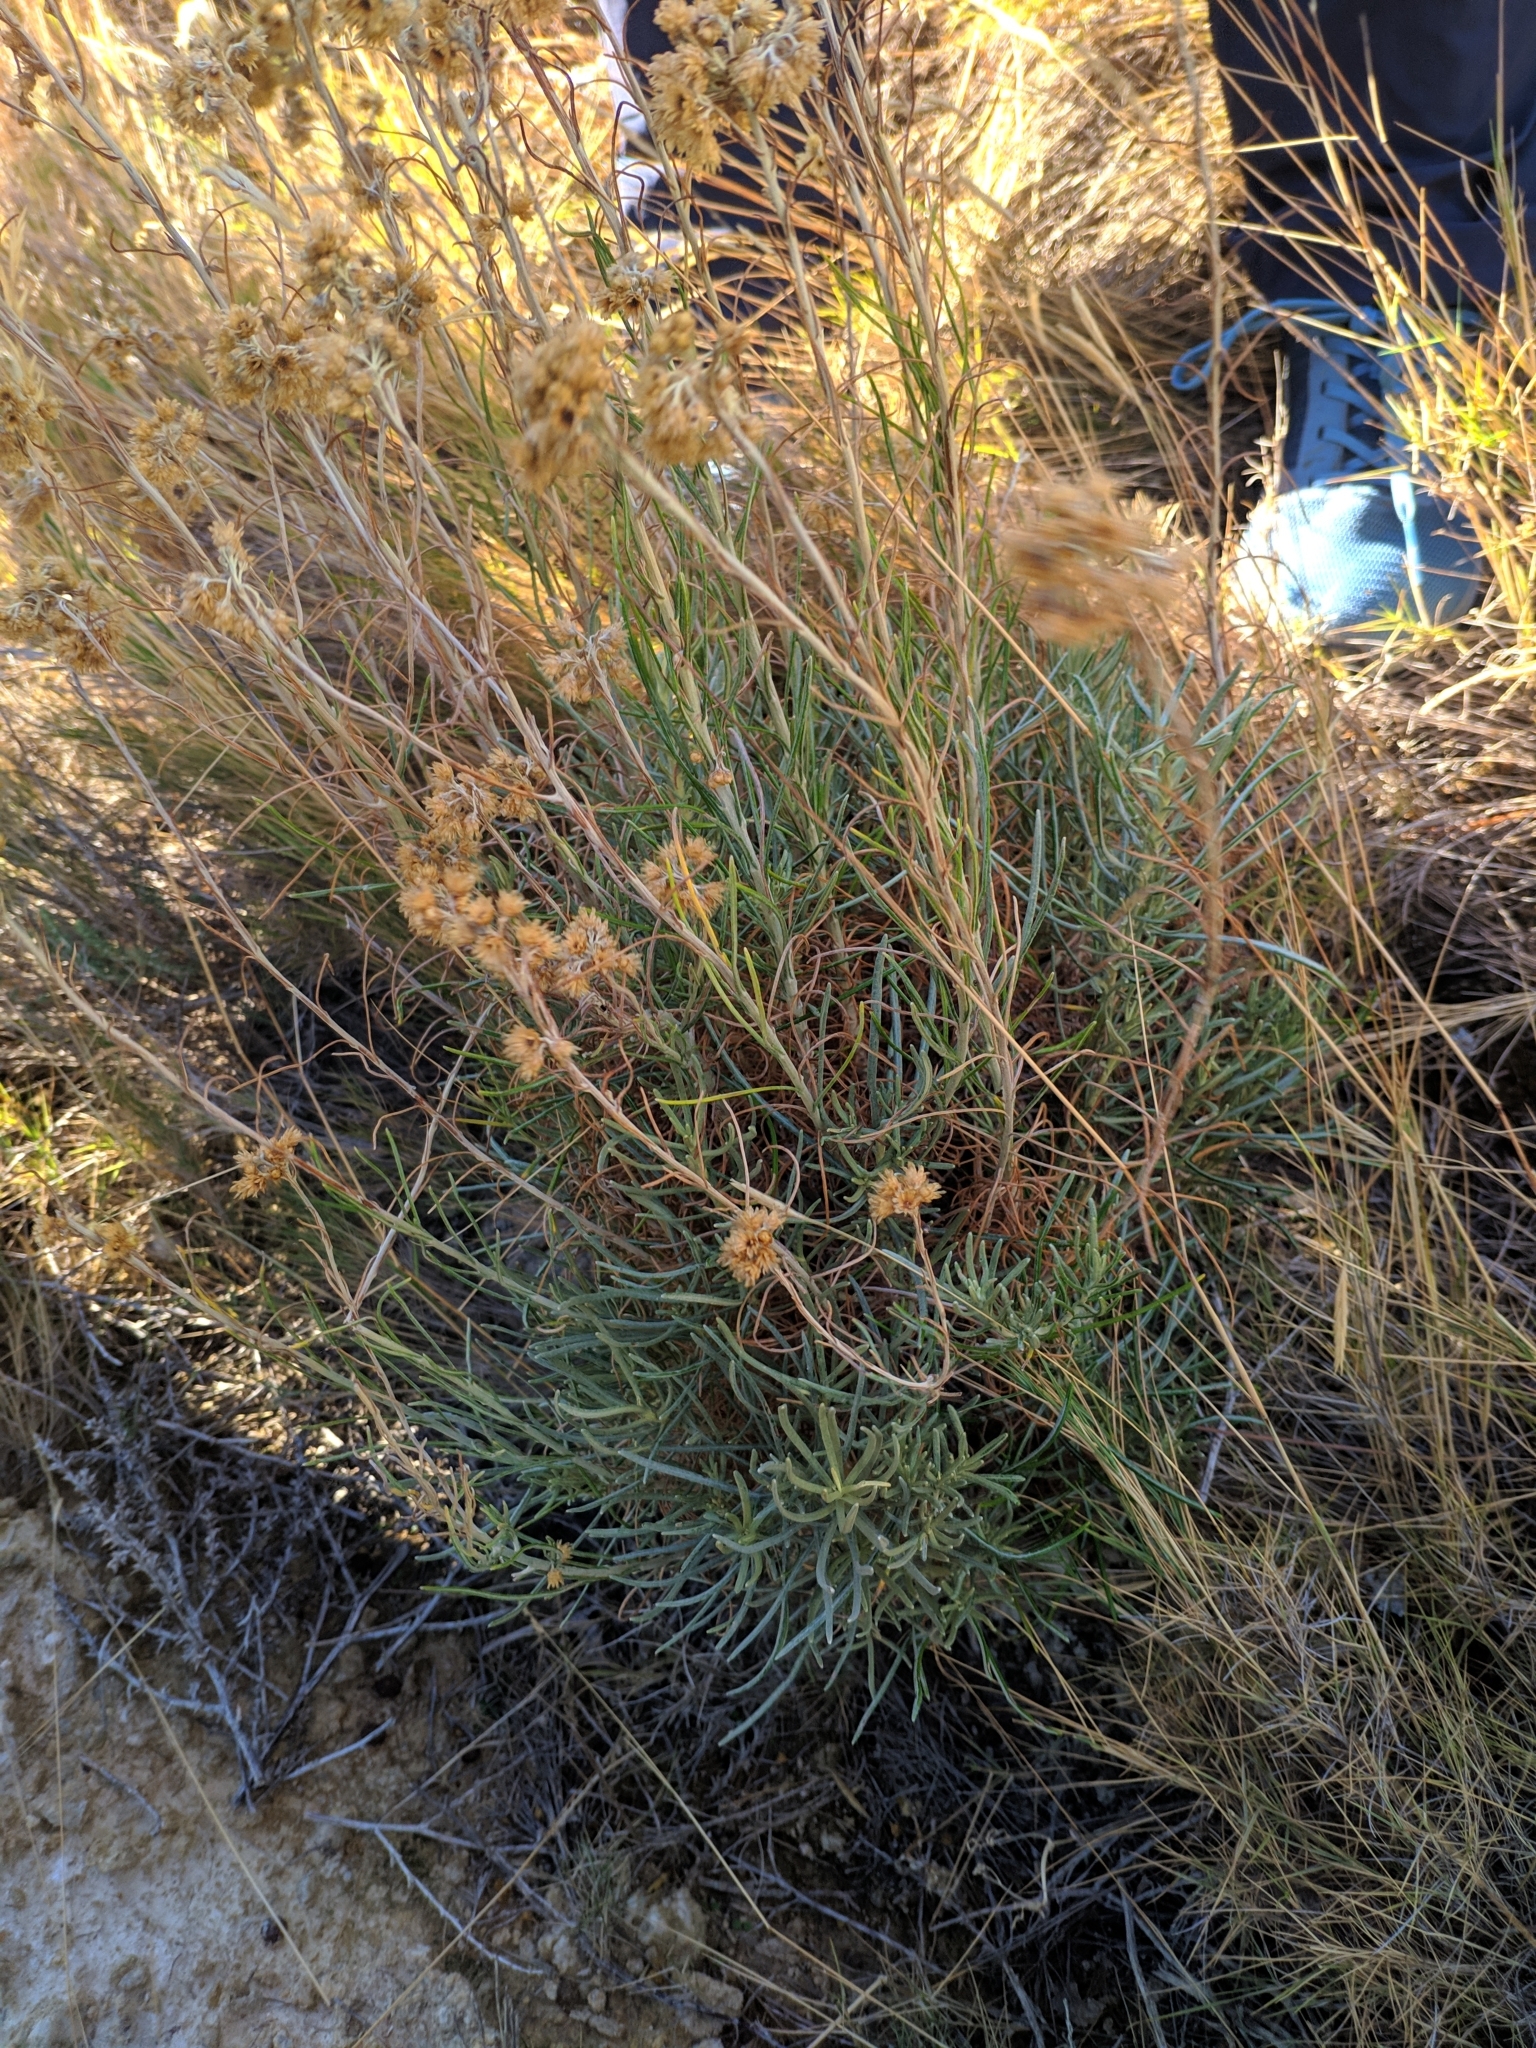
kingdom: Plantae
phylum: Tracheophyta
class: Magnoliopsida
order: Asterales
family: Asteraceae
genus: Helichrysum
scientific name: Helichrysum serotinum
